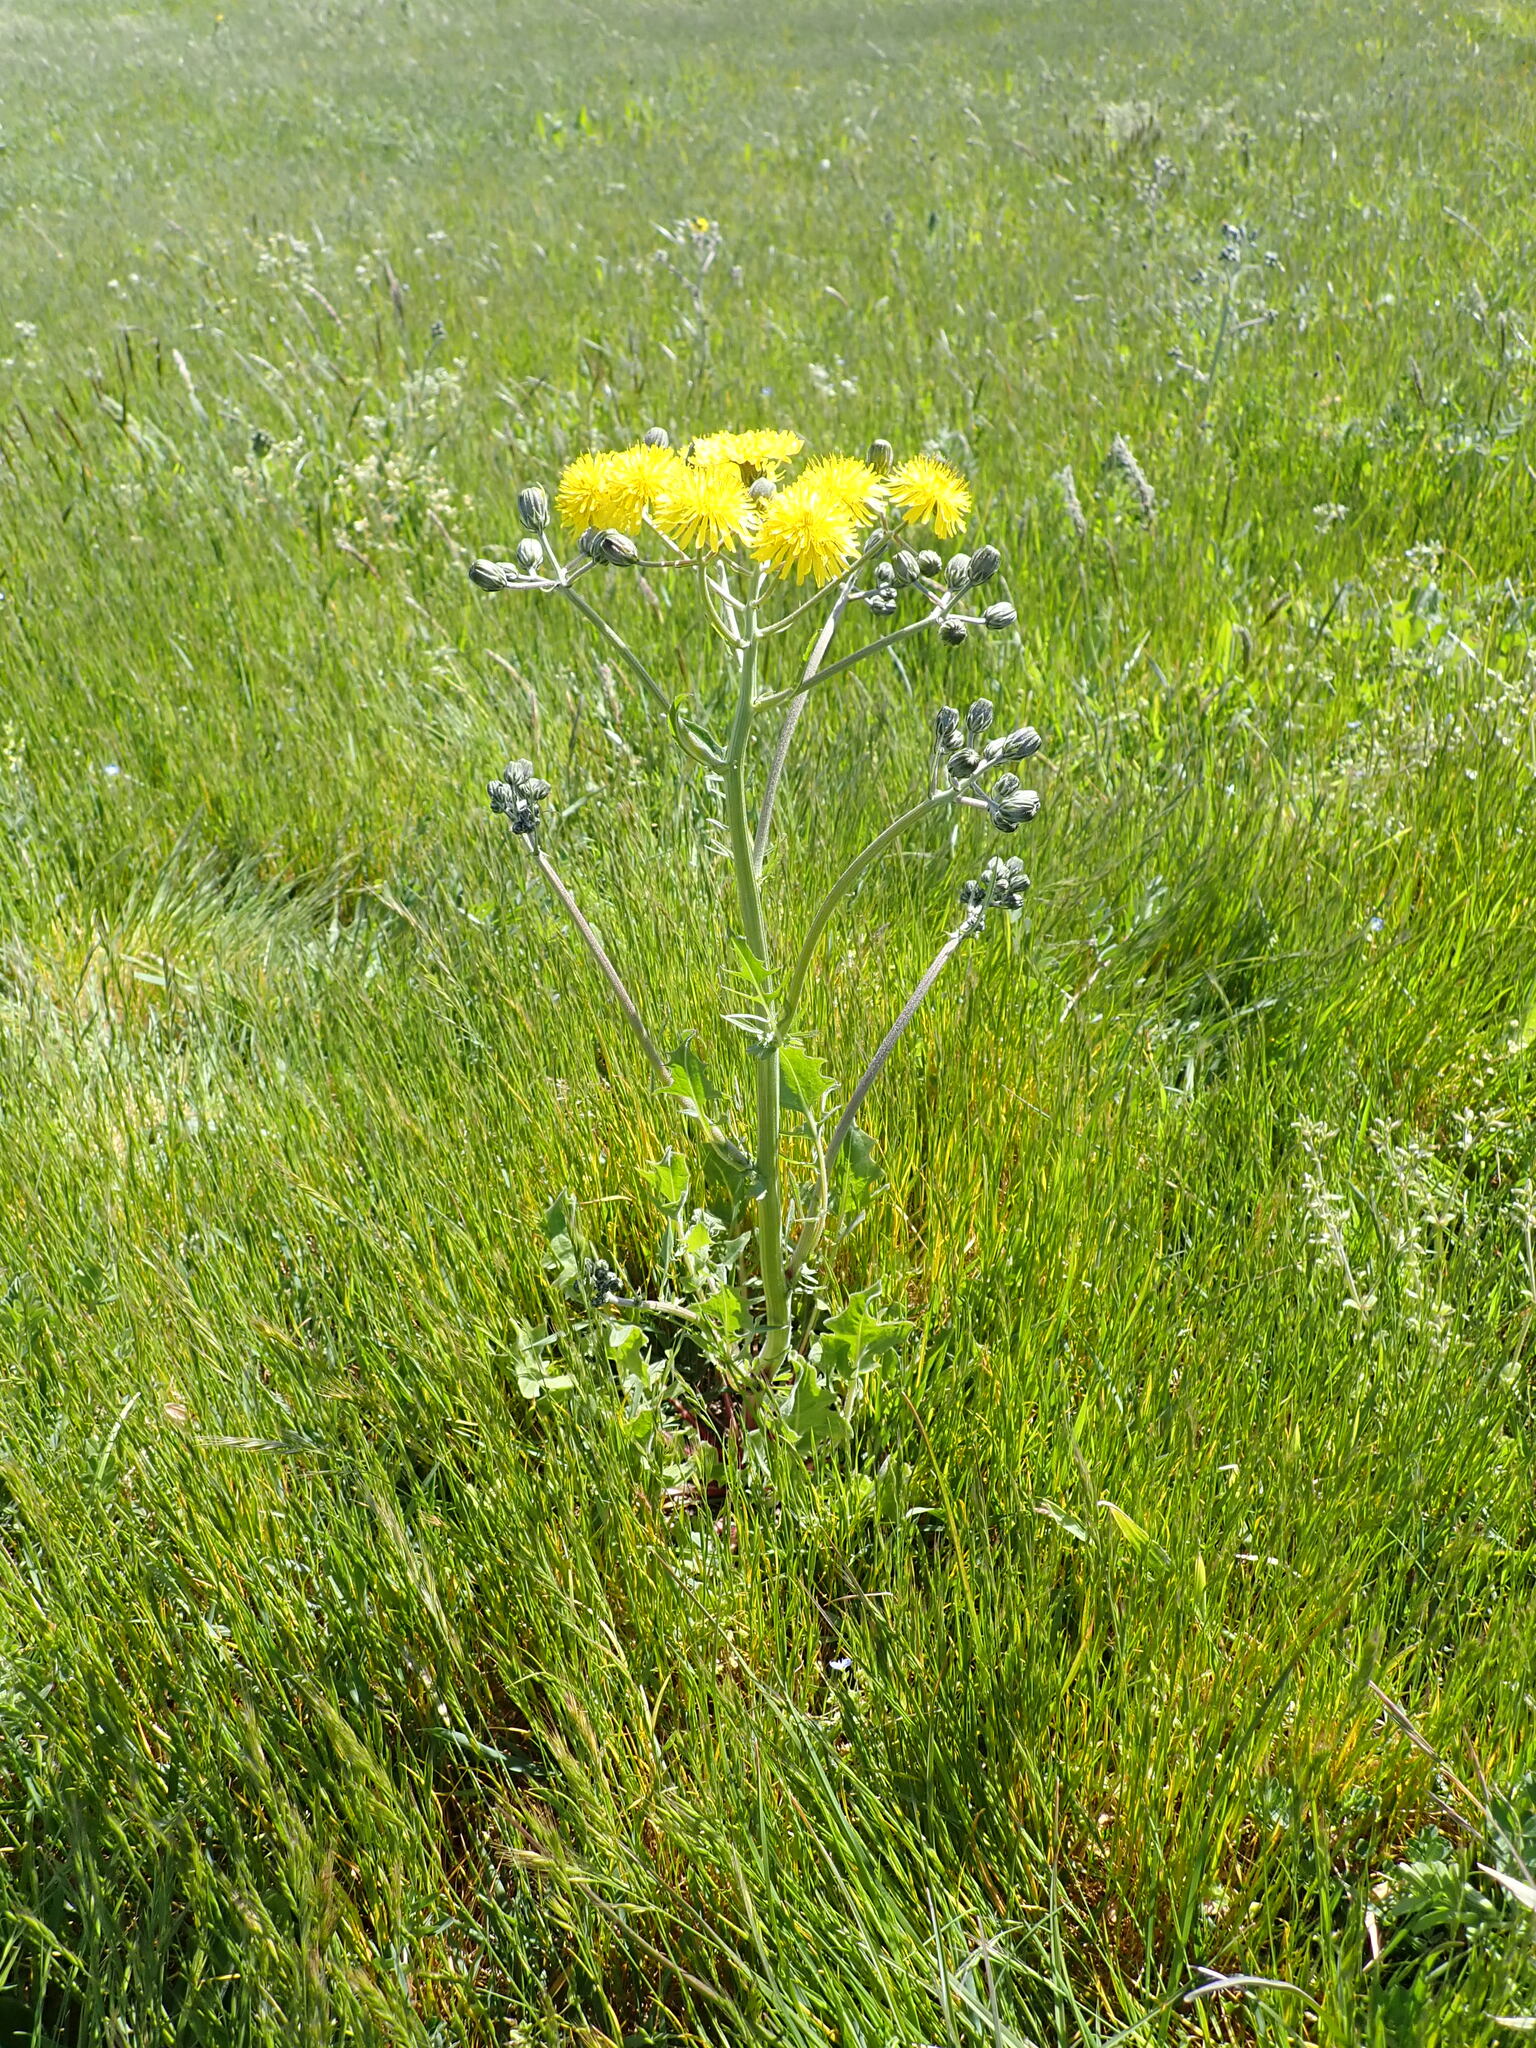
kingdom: Plantae
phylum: Tracheophyta
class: Magnoliopsida
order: Asterales
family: Asteraceae
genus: Crepis
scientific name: Crepis vesicaria
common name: Beaked hawksbeard
